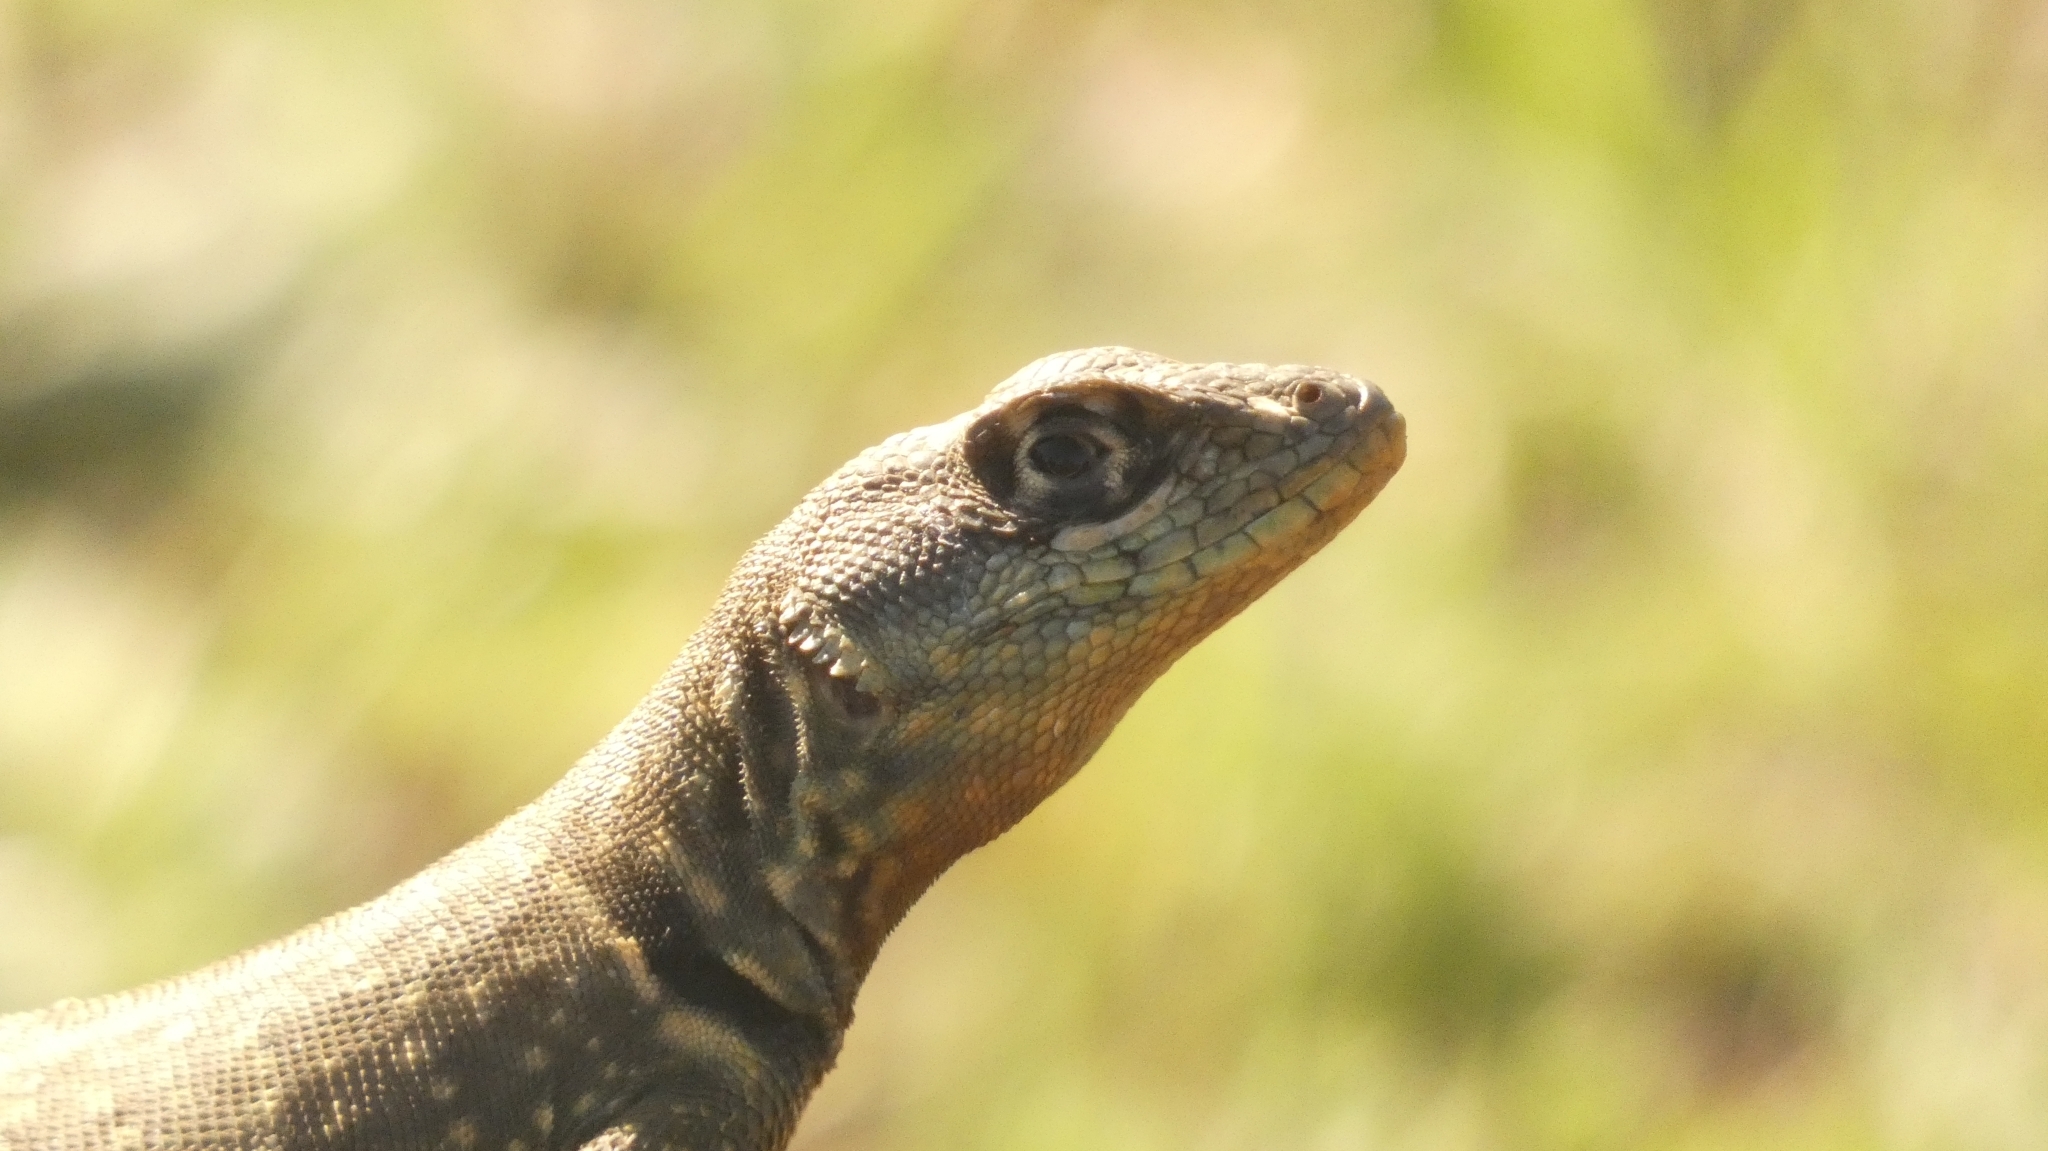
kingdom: Animalia
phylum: Chordata
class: Squamata
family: Tropiduridae
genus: Tropidurus
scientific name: Tropidurus catalanensis
